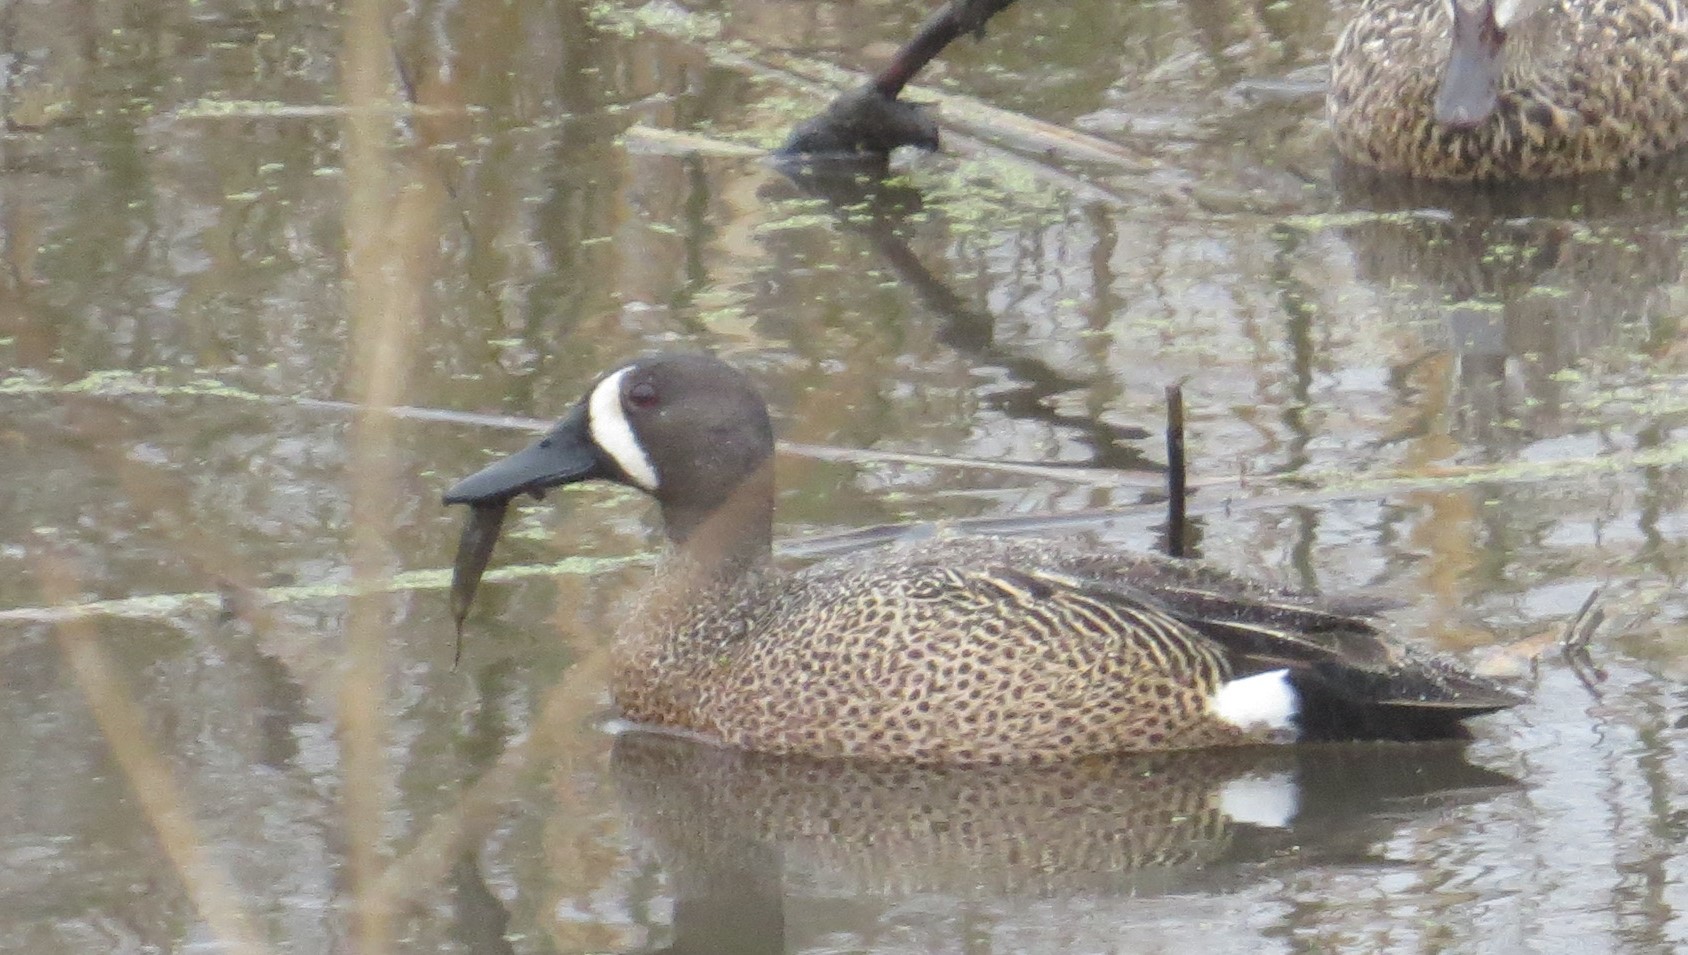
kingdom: Animalia
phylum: Chordata
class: Aves
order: Anseriformes
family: Anatidae
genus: Spatula
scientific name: Spatula discors
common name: Blue-winged teal
